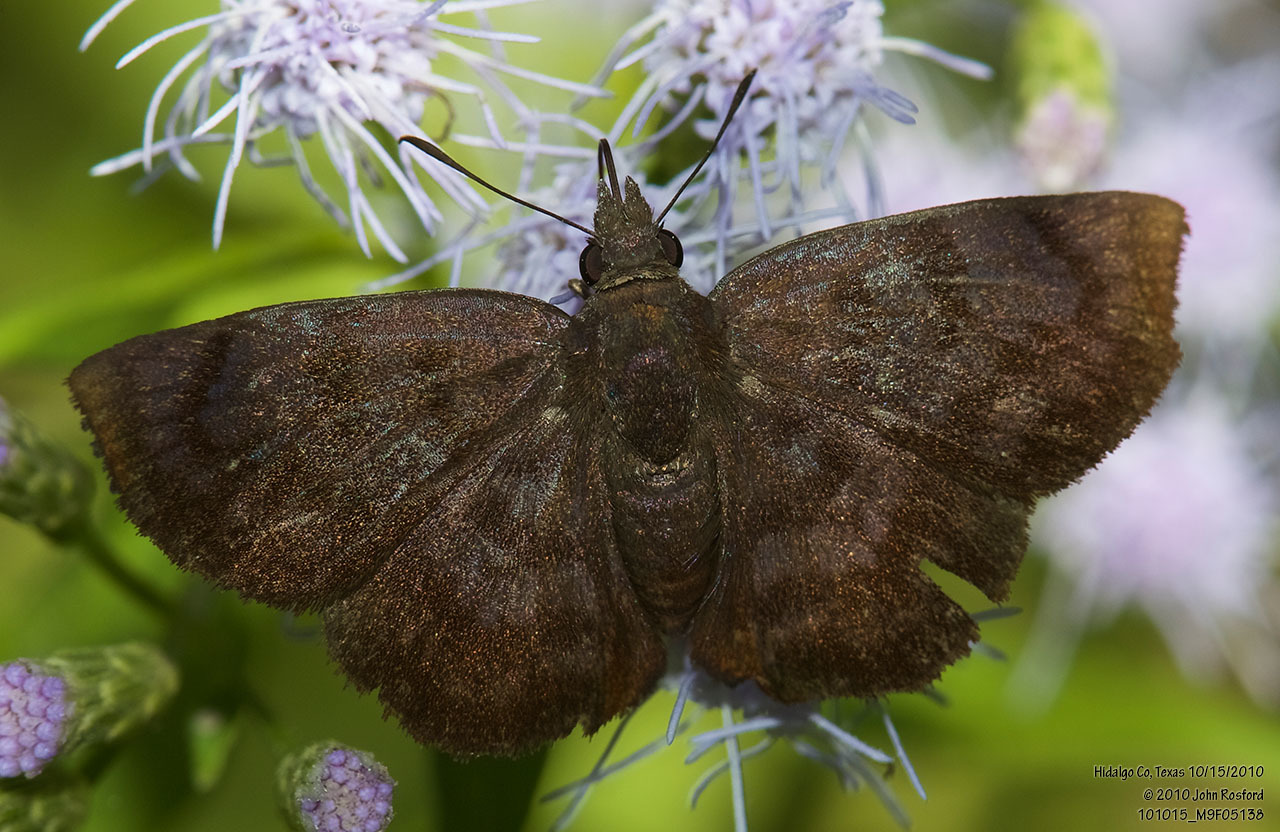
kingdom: Animalia
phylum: Arthropoda
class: Insecta
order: Lepidoptera
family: Hesperiidae
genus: Pellicia
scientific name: Pellicia costimacula
